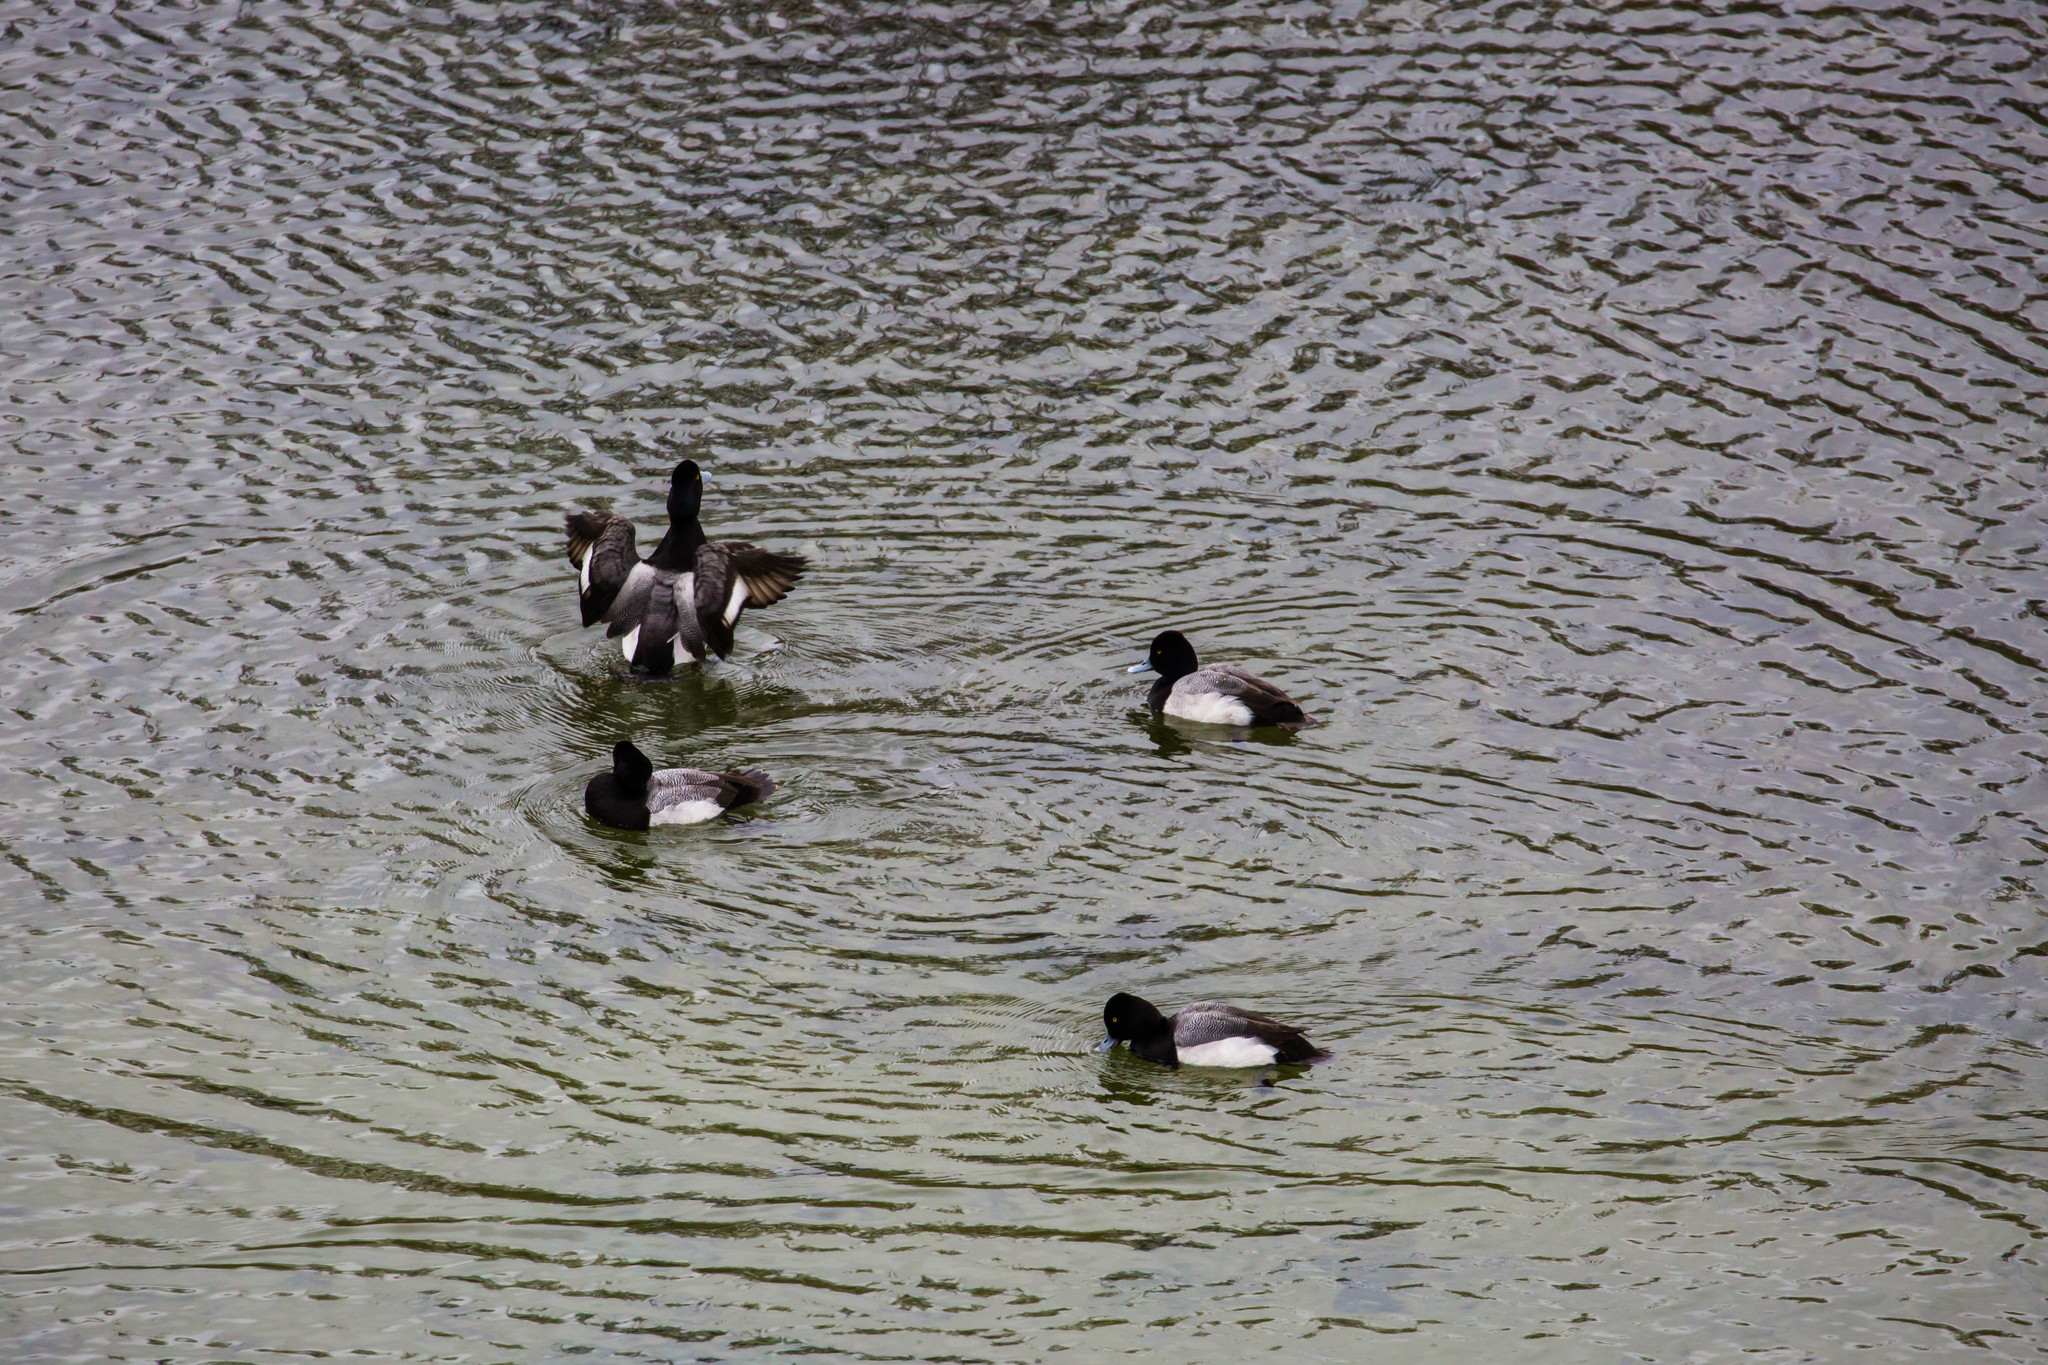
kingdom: Animalia
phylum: Chordata
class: Aves
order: Anseriformes
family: Anatidae
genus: Aythya
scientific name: Aythya affinis
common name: Lesser scaup
